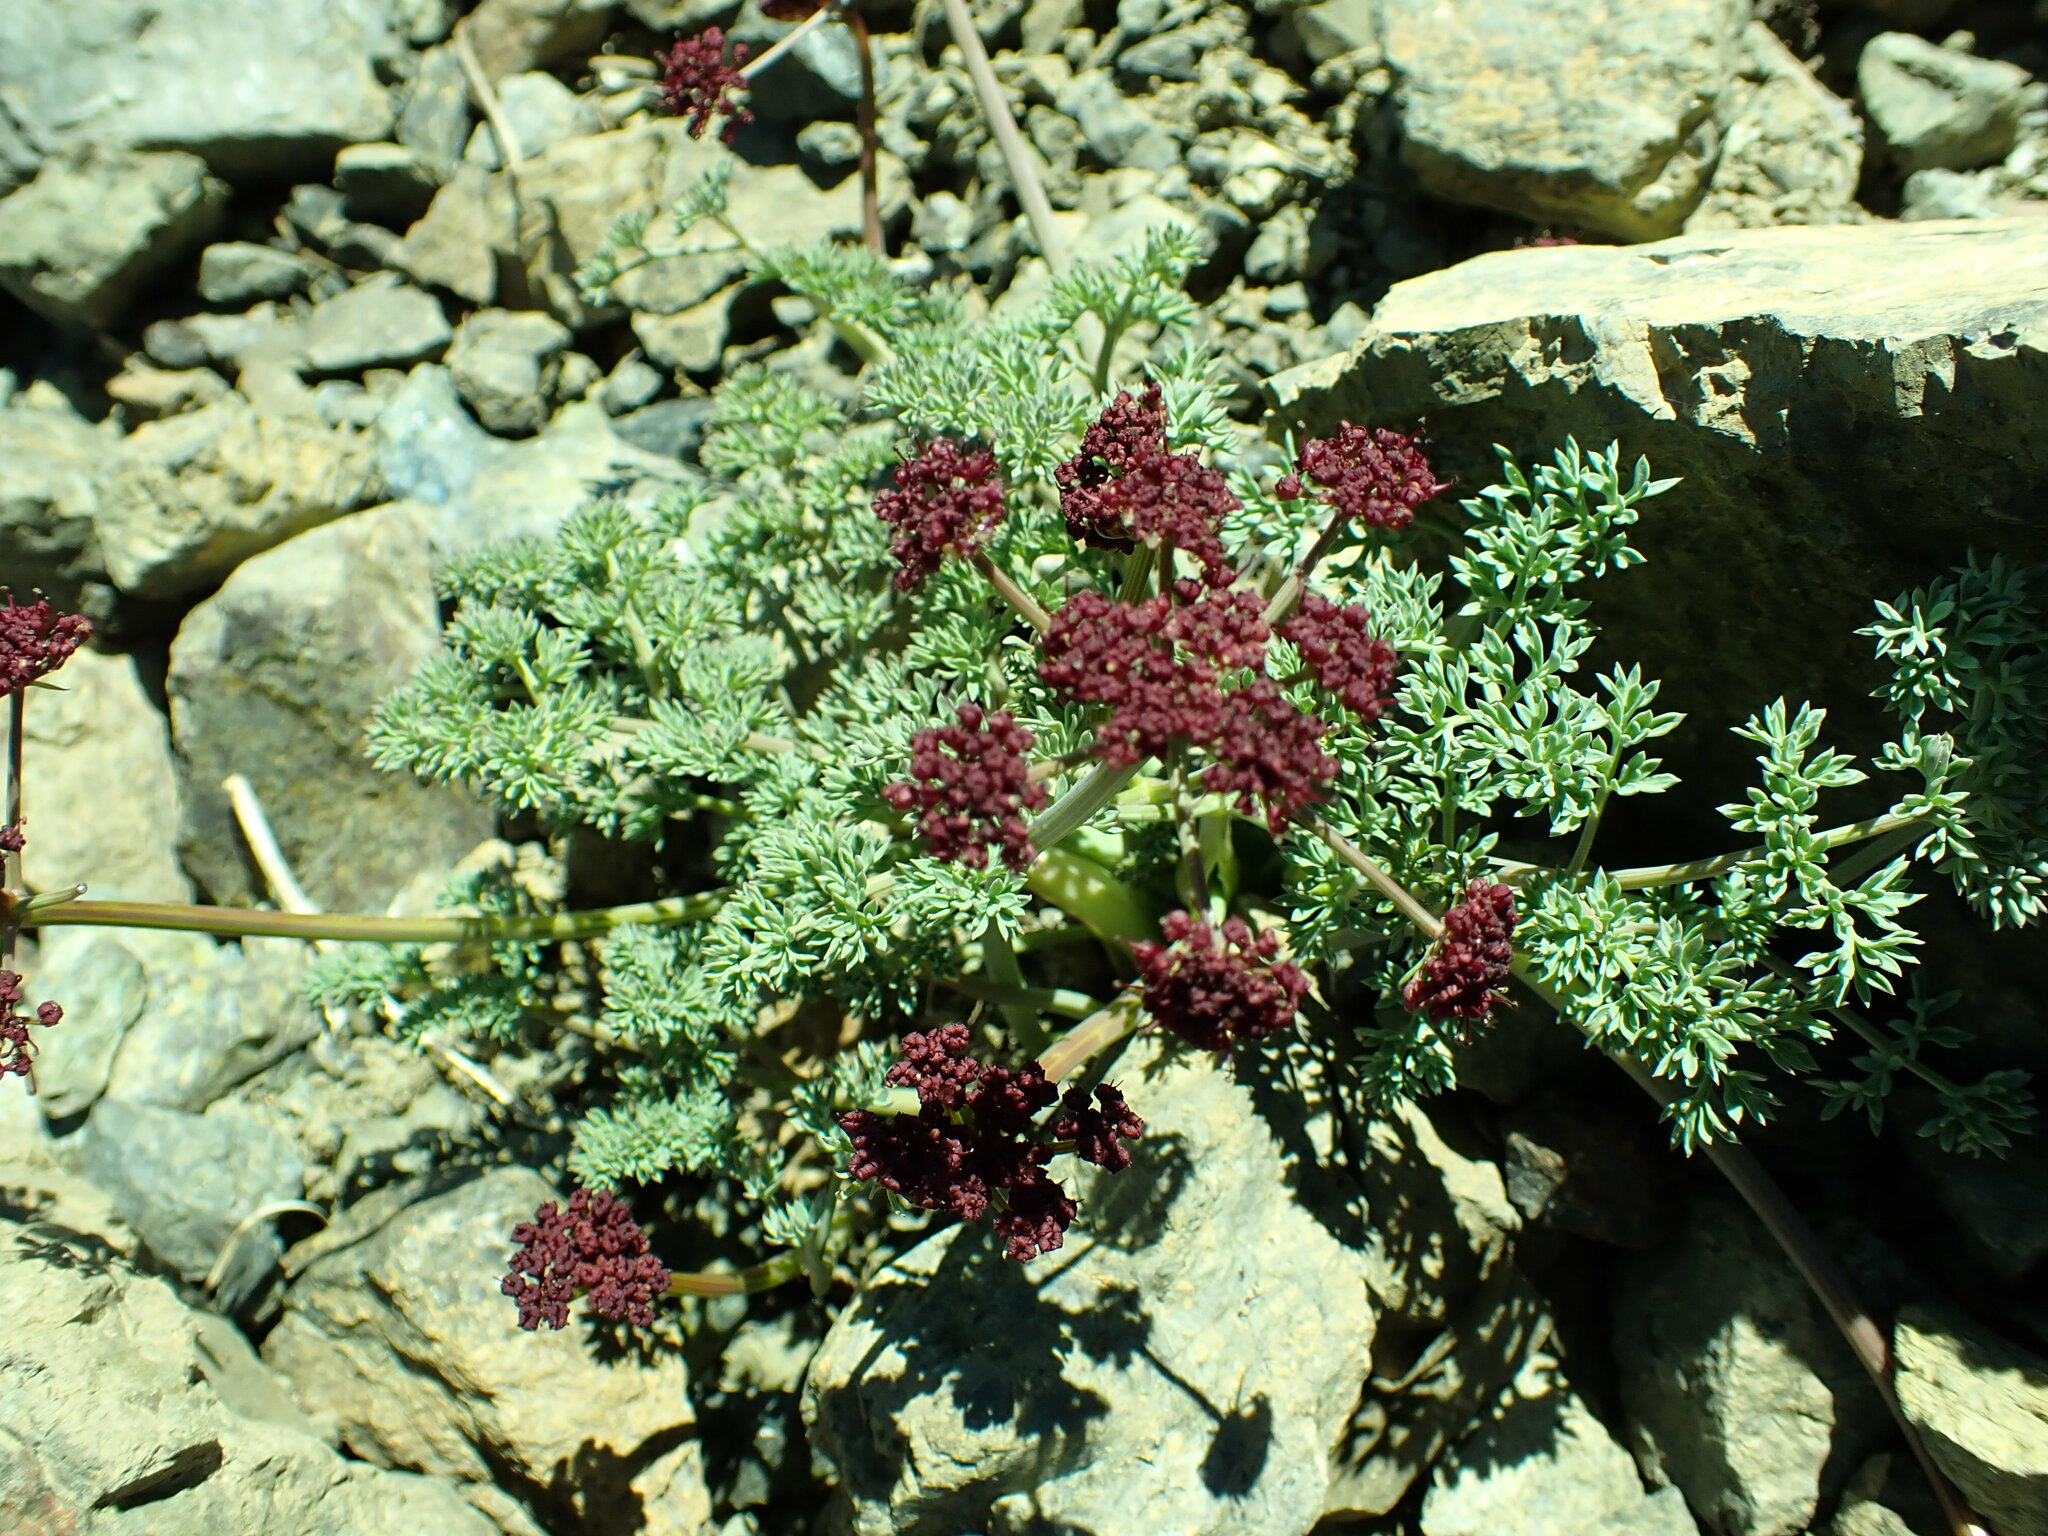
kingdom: Plantae
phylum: Tracheophyta
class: Magnoliopsida
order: Apiales
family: Apiaceae
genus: Lomatium
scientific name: Lomatium cuspidatum
